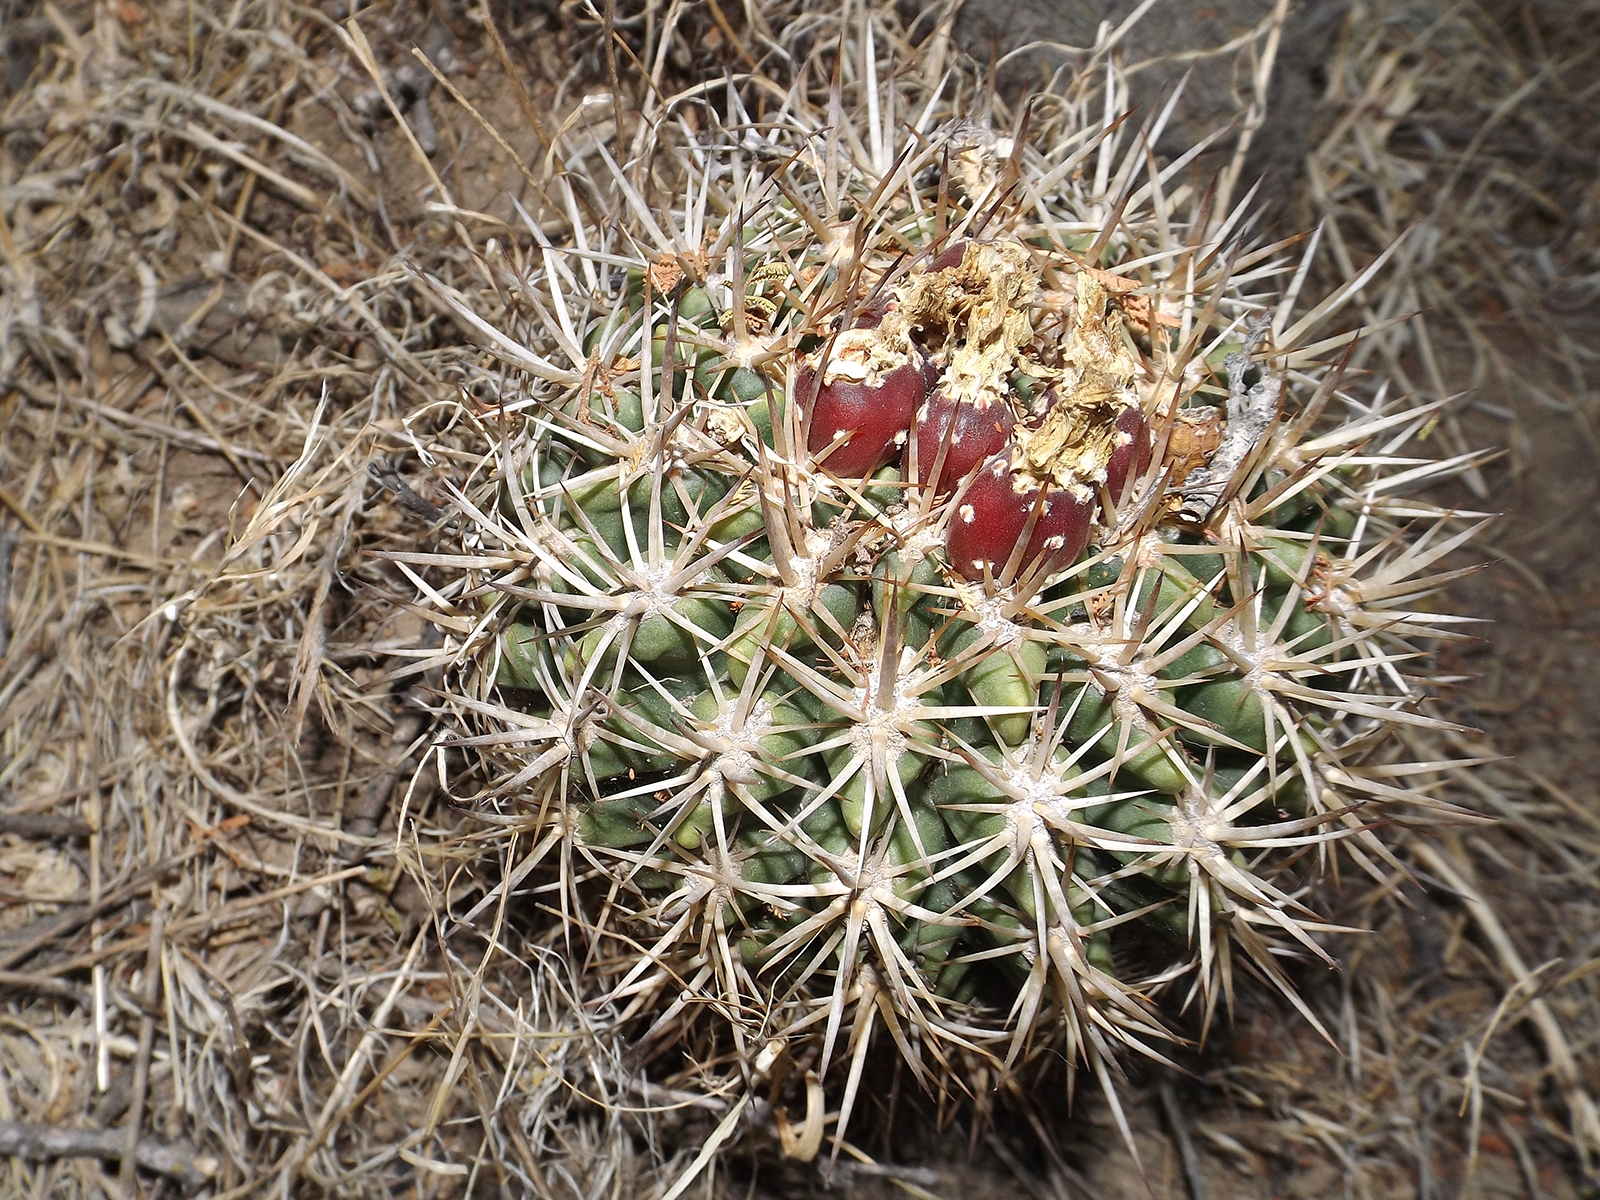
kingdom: Plantae
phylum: Tracheophyta
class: Magnoliopsida
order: Caryophyllales
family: Cactaceae
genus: Eriosyce
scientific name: Eriosyce curvispina
